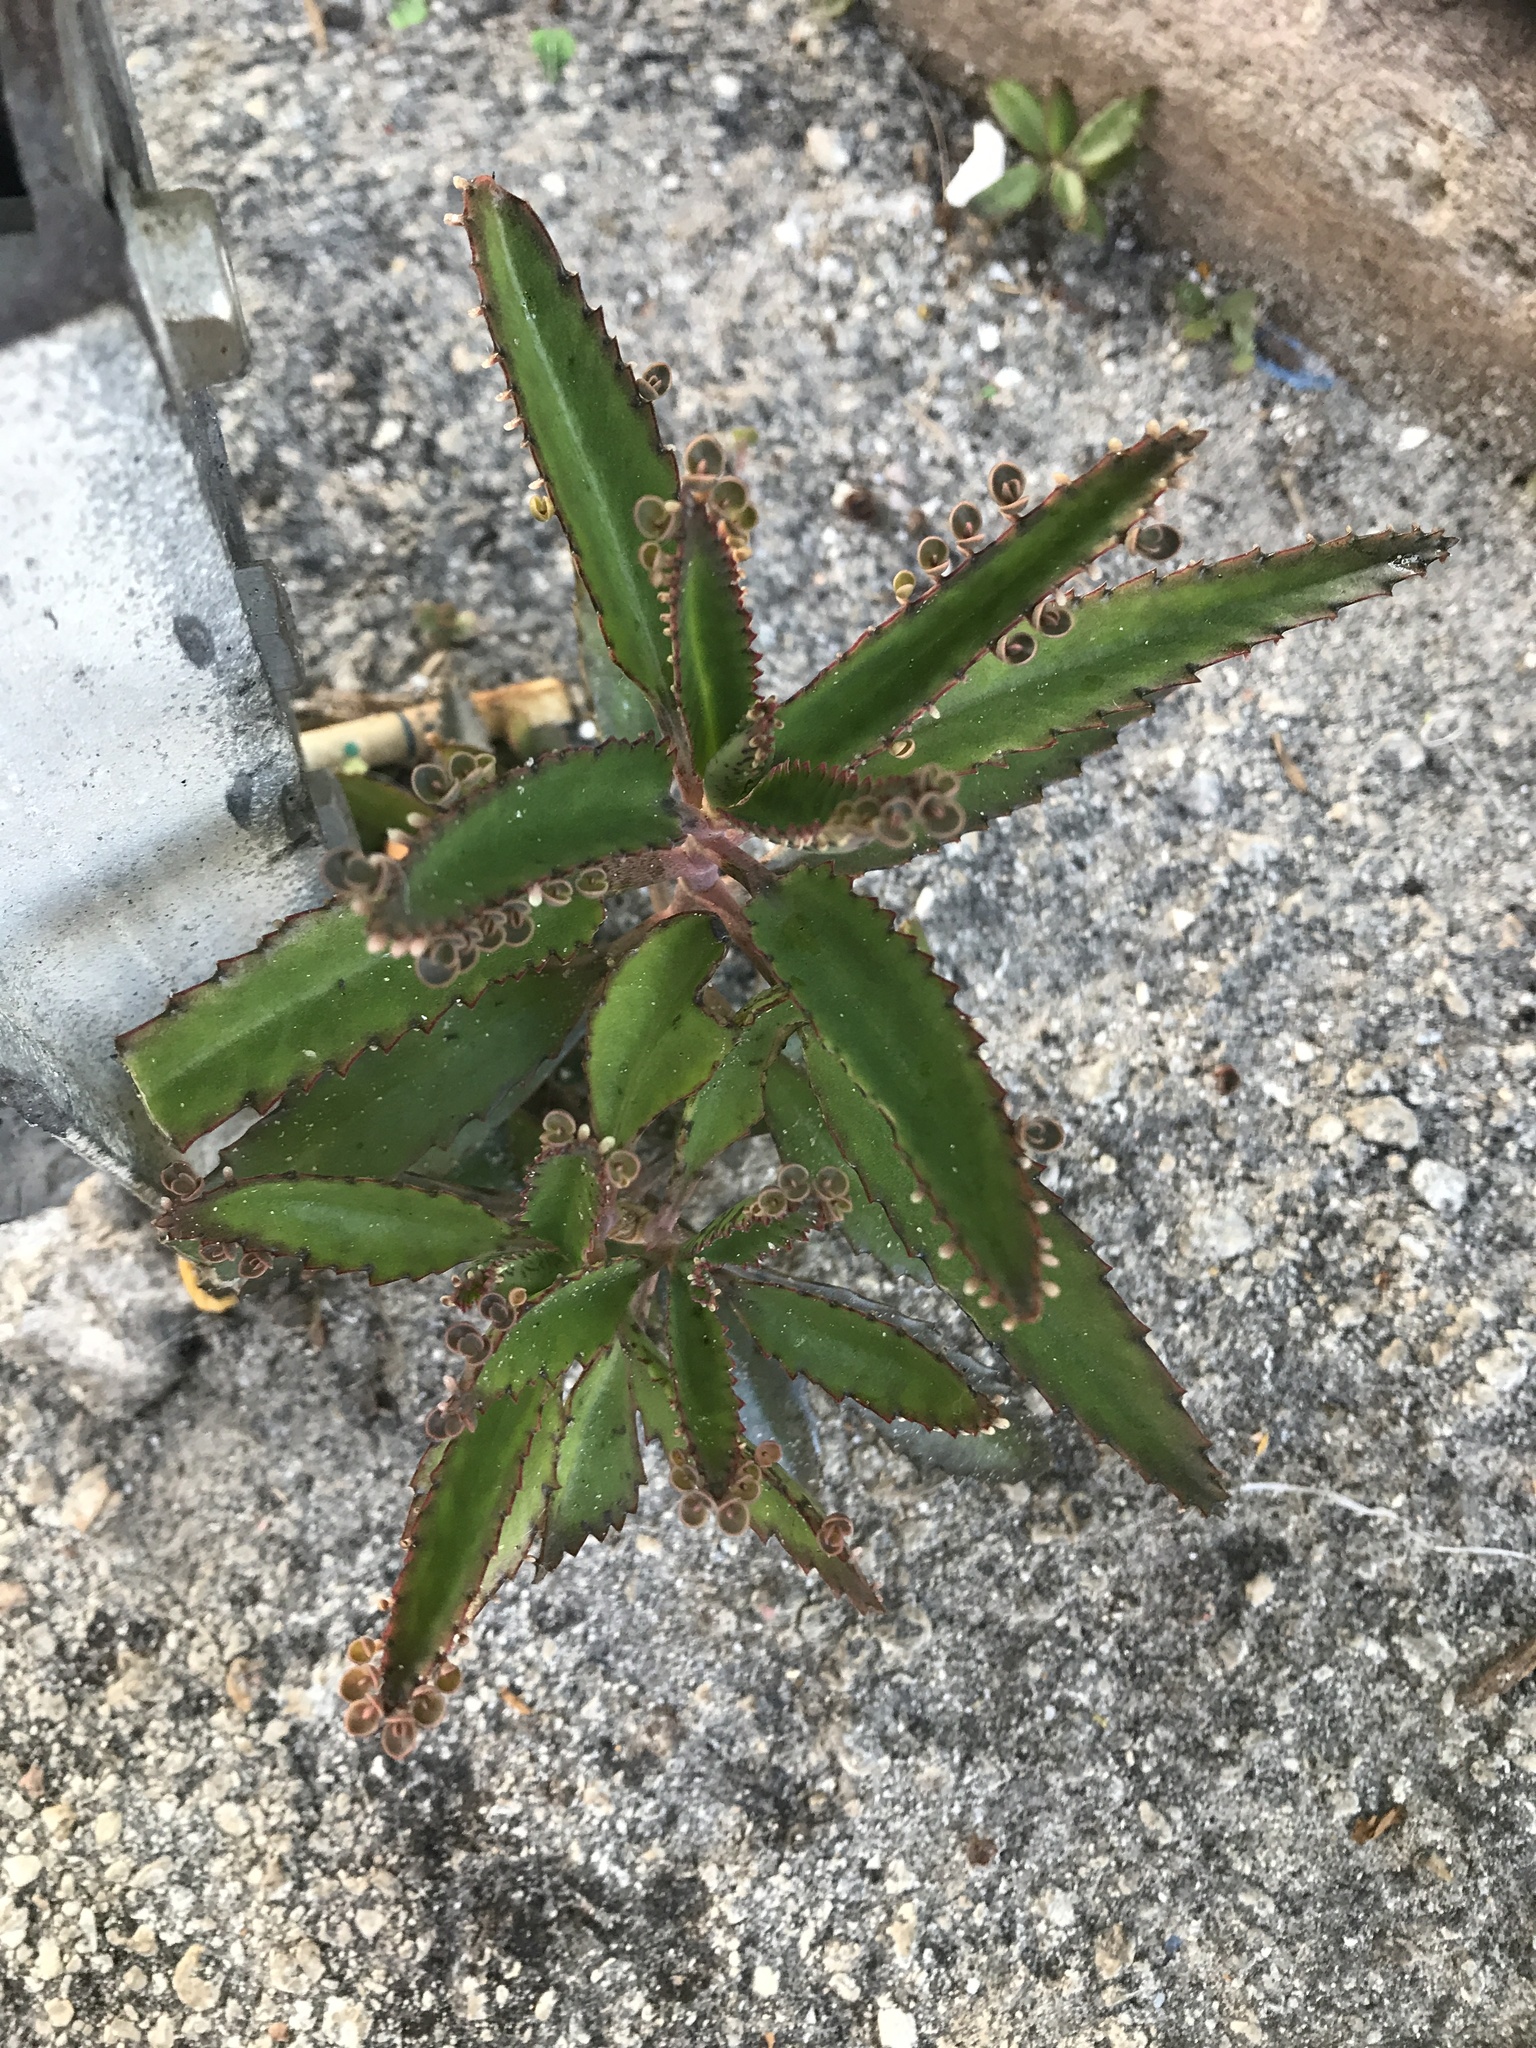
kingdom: Plantae
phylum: Tracheophyta
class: Magnoliopsida
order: Saxifragales
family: Crassulaceae
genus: Kalanchoe
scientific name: Kalanchoe houghtonii
